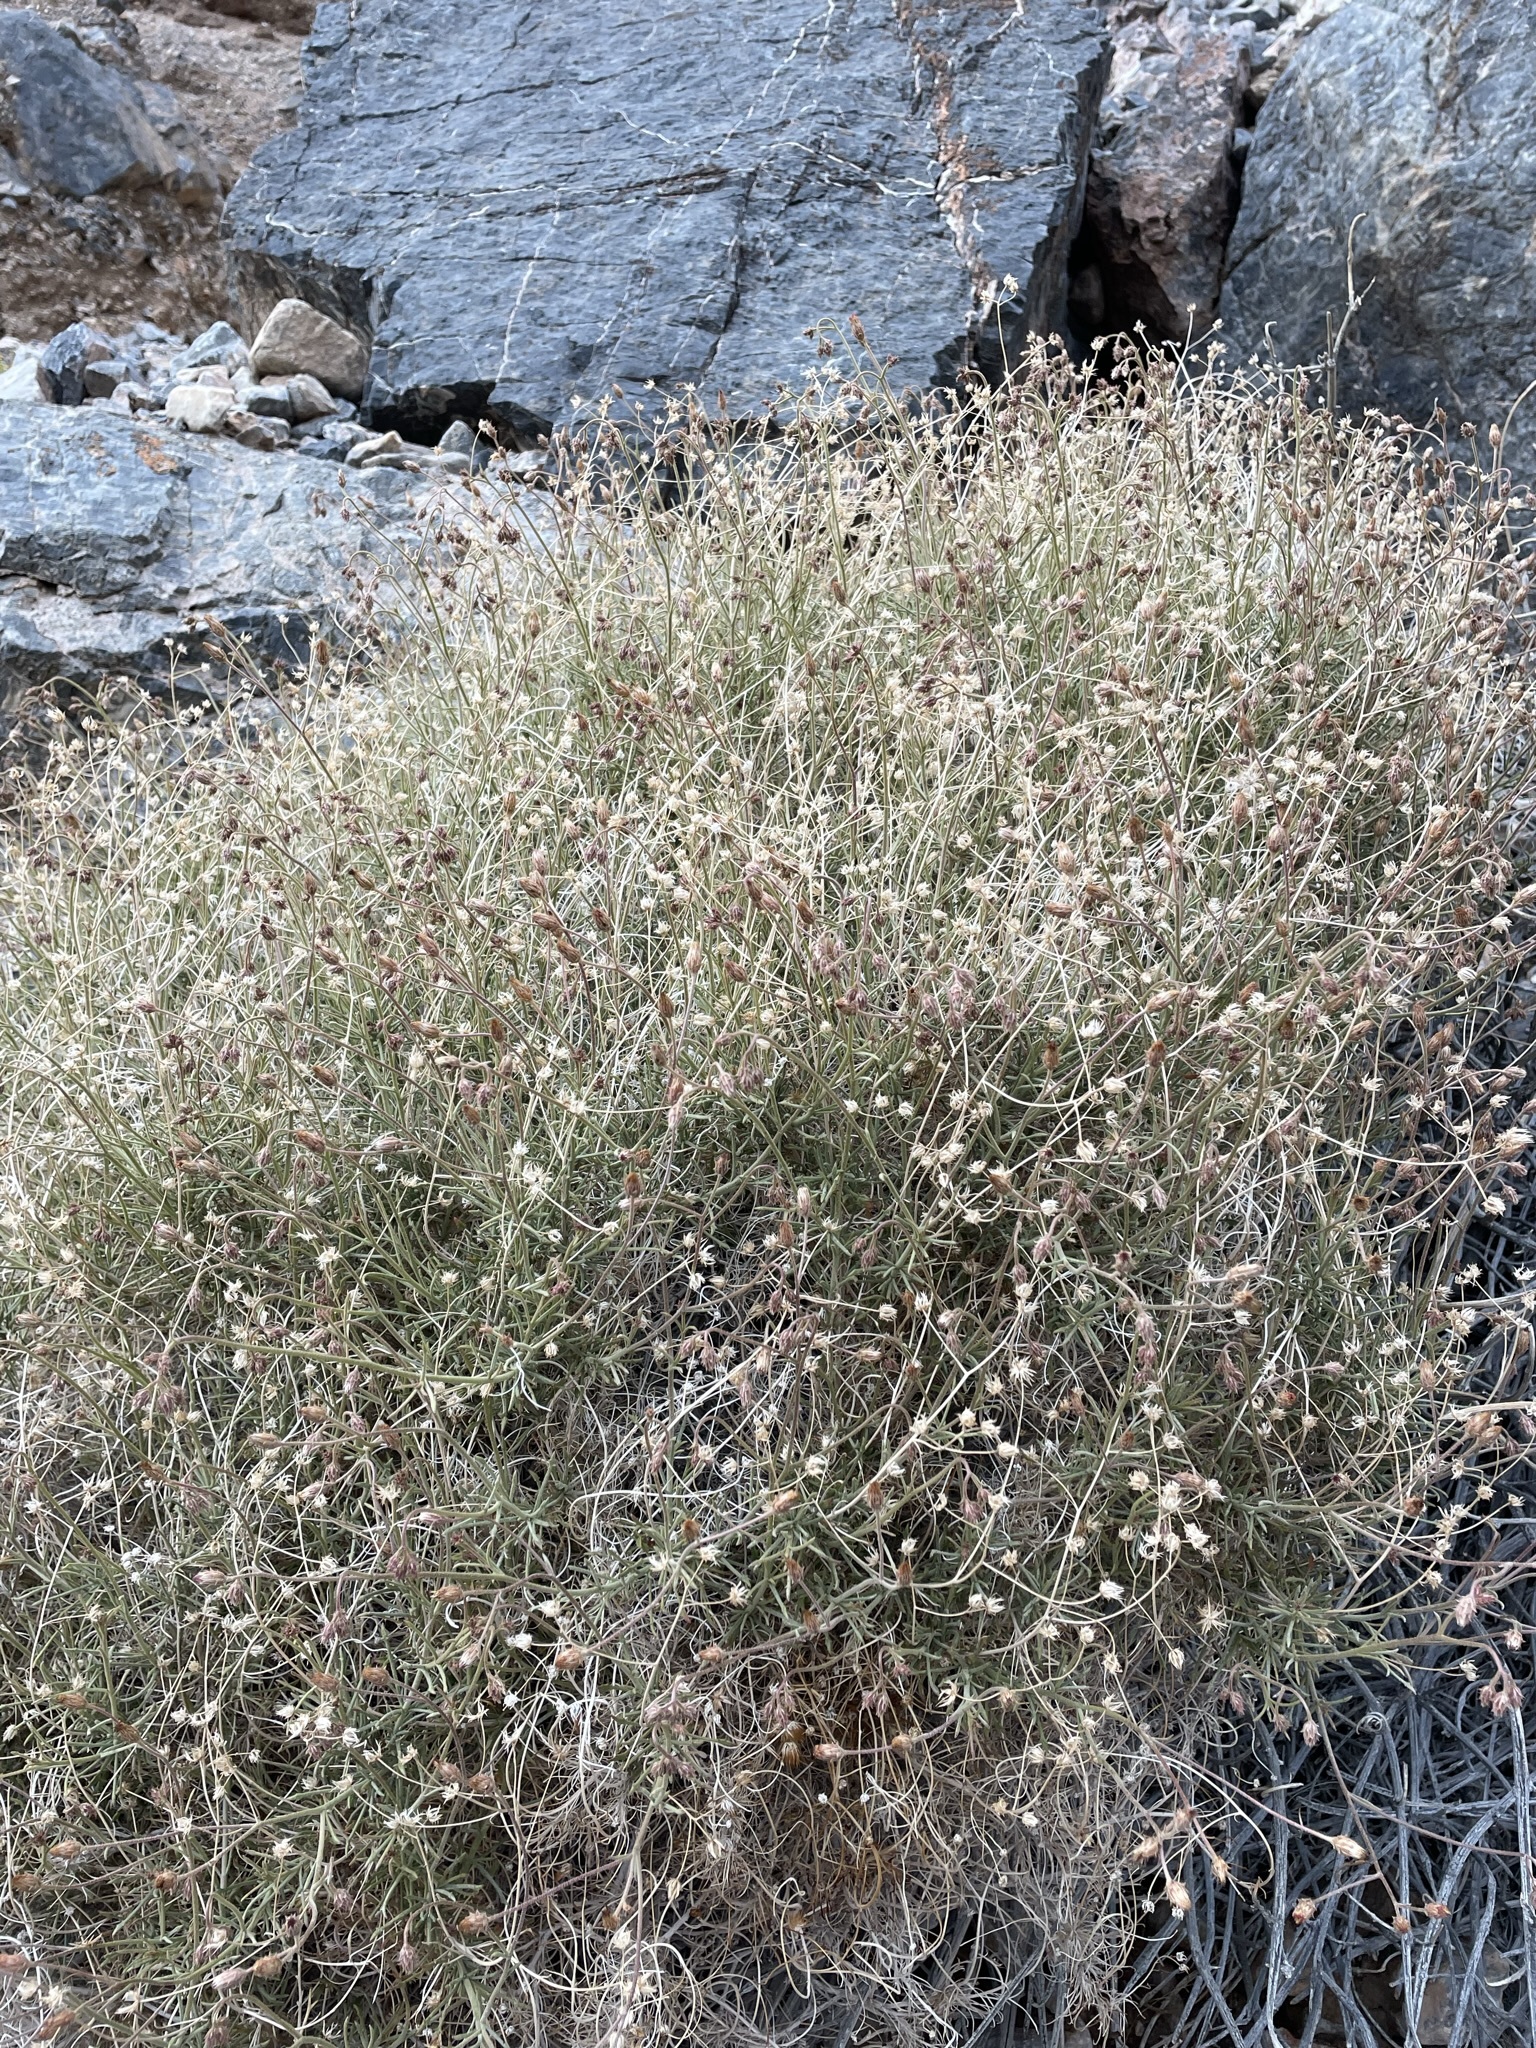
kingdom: Plantae
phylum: Tracheophyta
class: Magnoliopsida
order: Asterales
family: Asteraceae
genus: Pleurocoronis
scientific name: Pleurocoronis pluriseta
